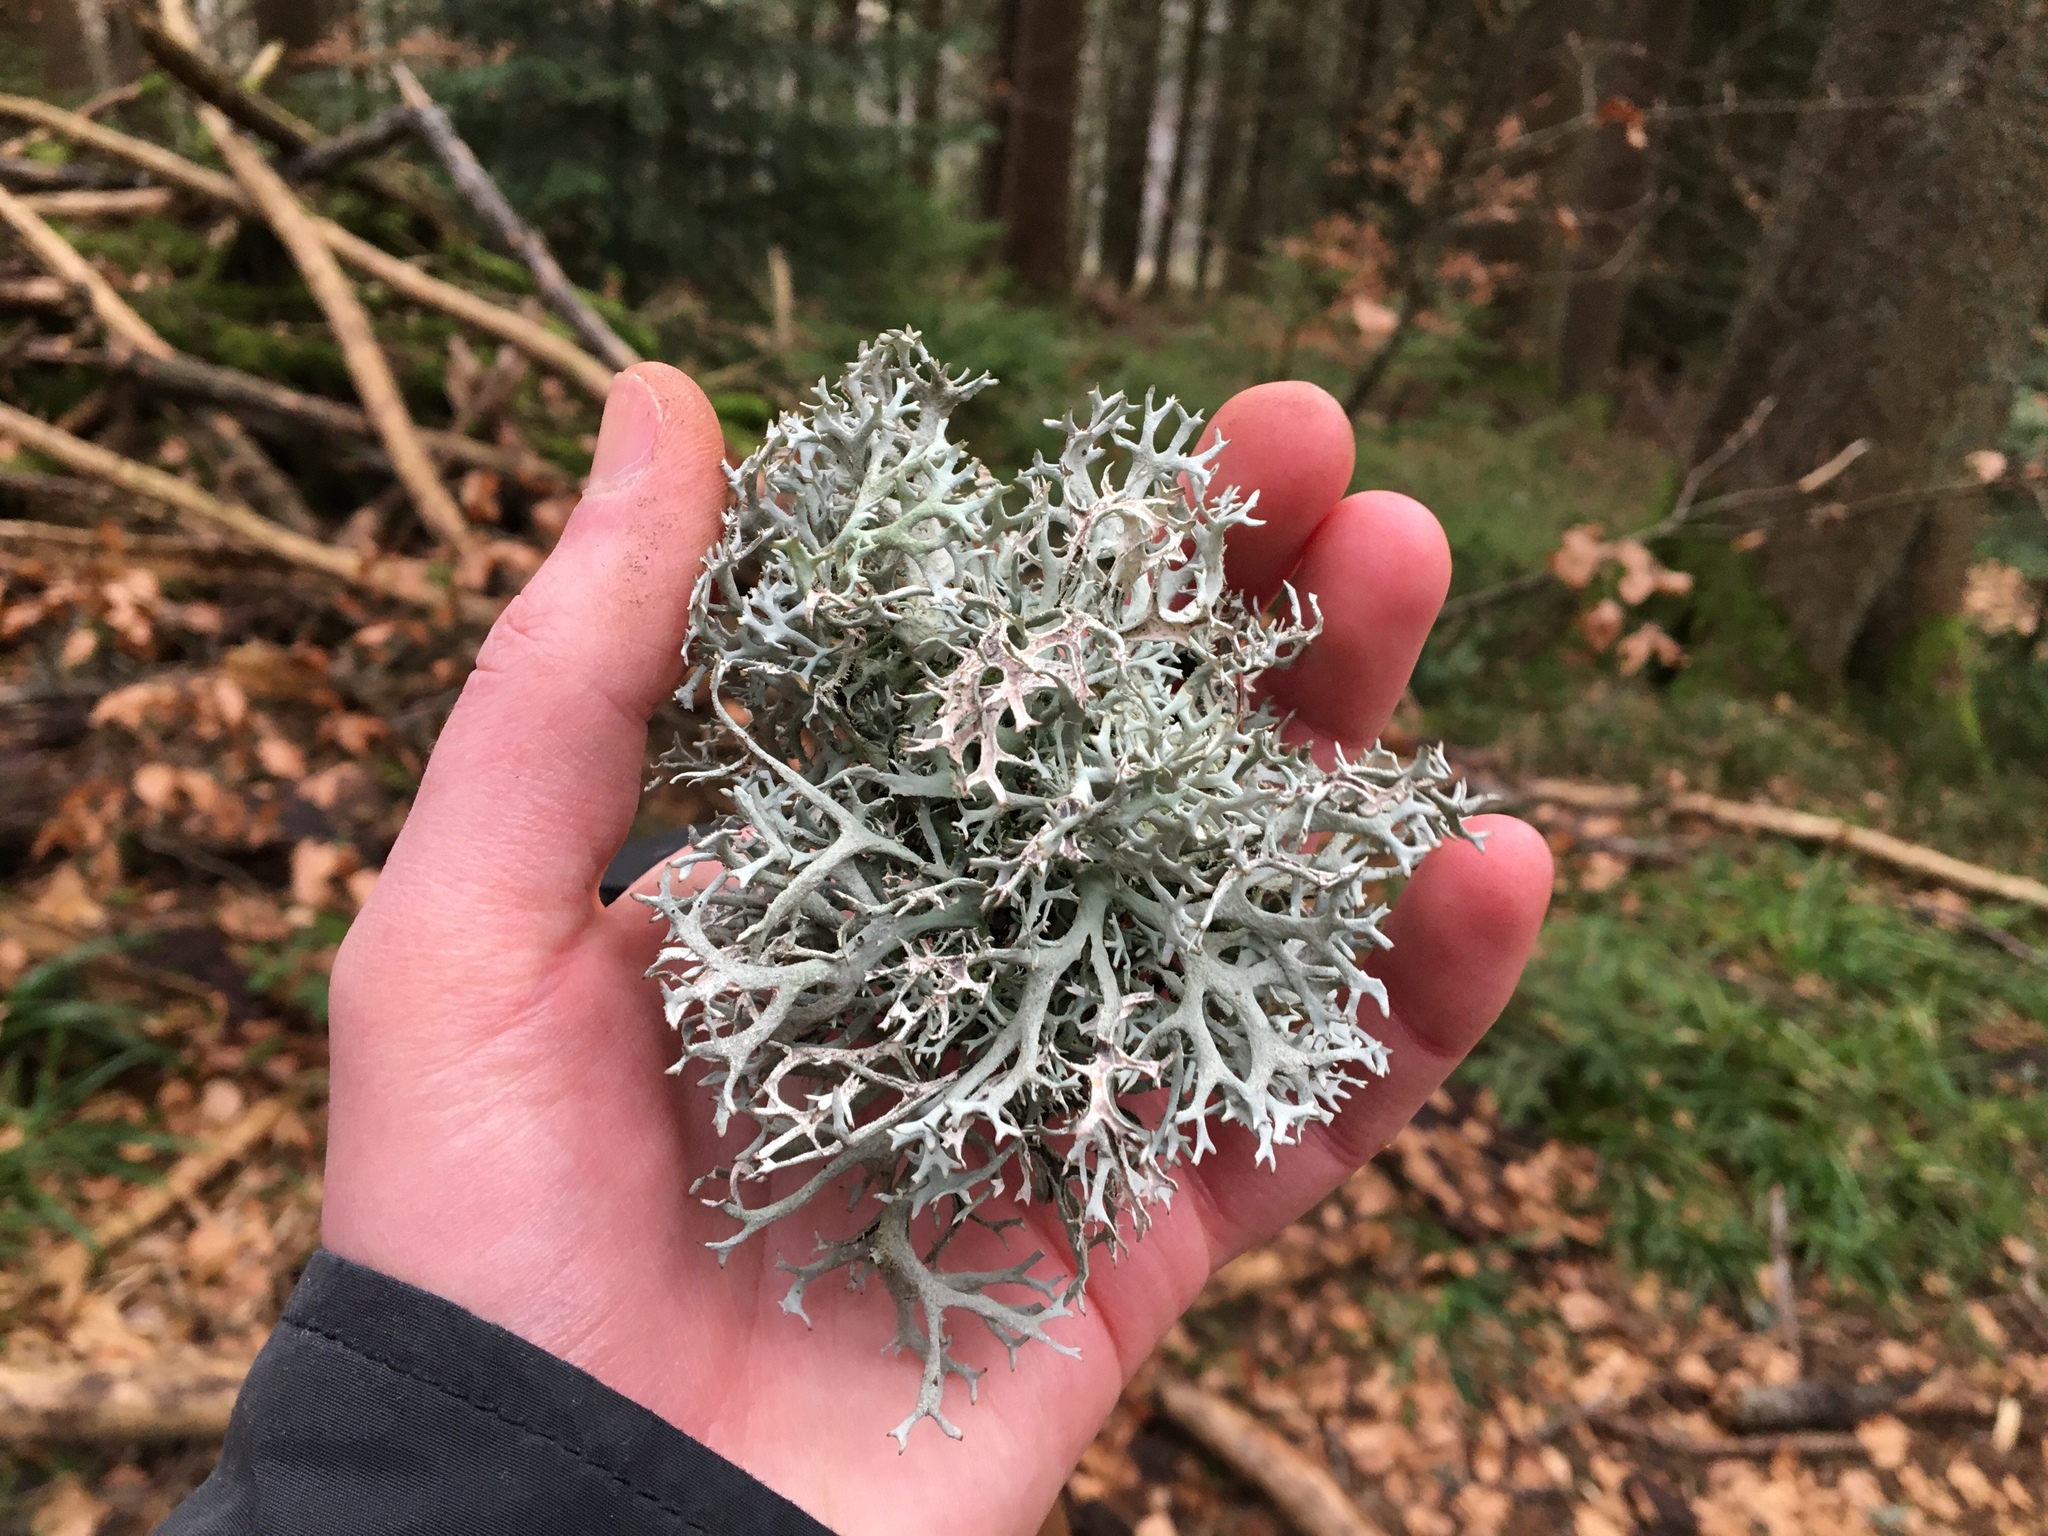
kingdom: Fungi
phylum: Ascomycota
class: Lecanoromycetes
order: Lecanorales
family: Parmeliaceae
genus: Pseudevernia
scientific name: Pseudevernia furfuracea
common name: Tree moss
